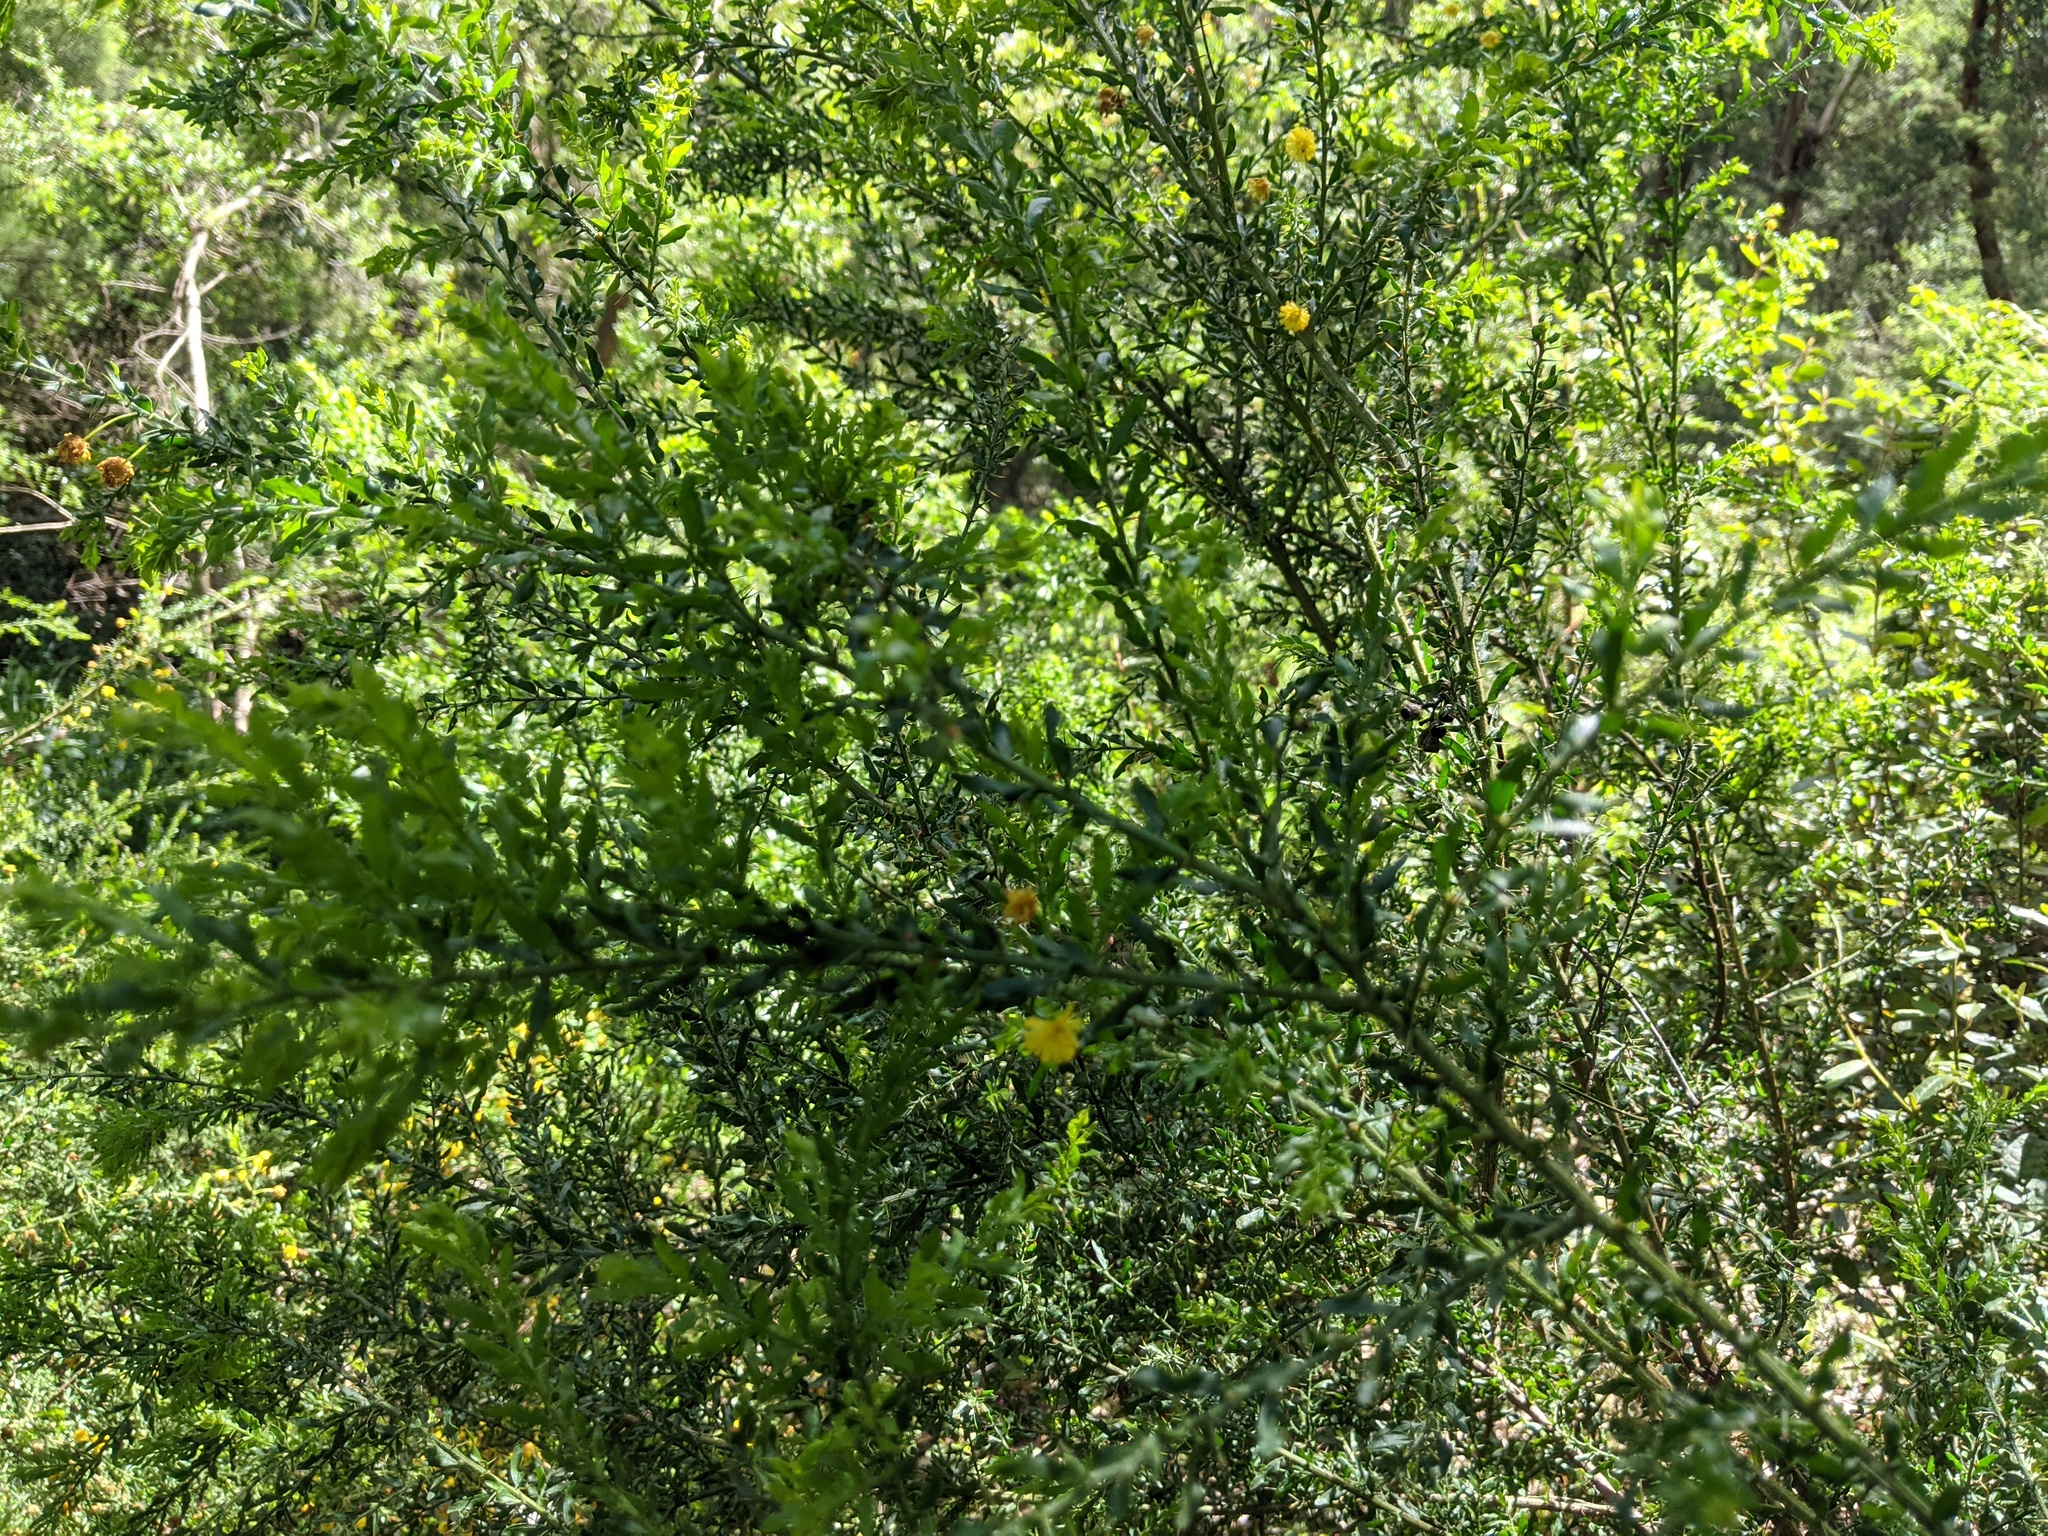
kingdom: Plantae
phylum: Tracheophyta
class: Magnoliopsida
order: Fabales
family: Fabaceae
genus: Acacia
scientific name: Acacia paradoxa
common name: Paradox acacia
